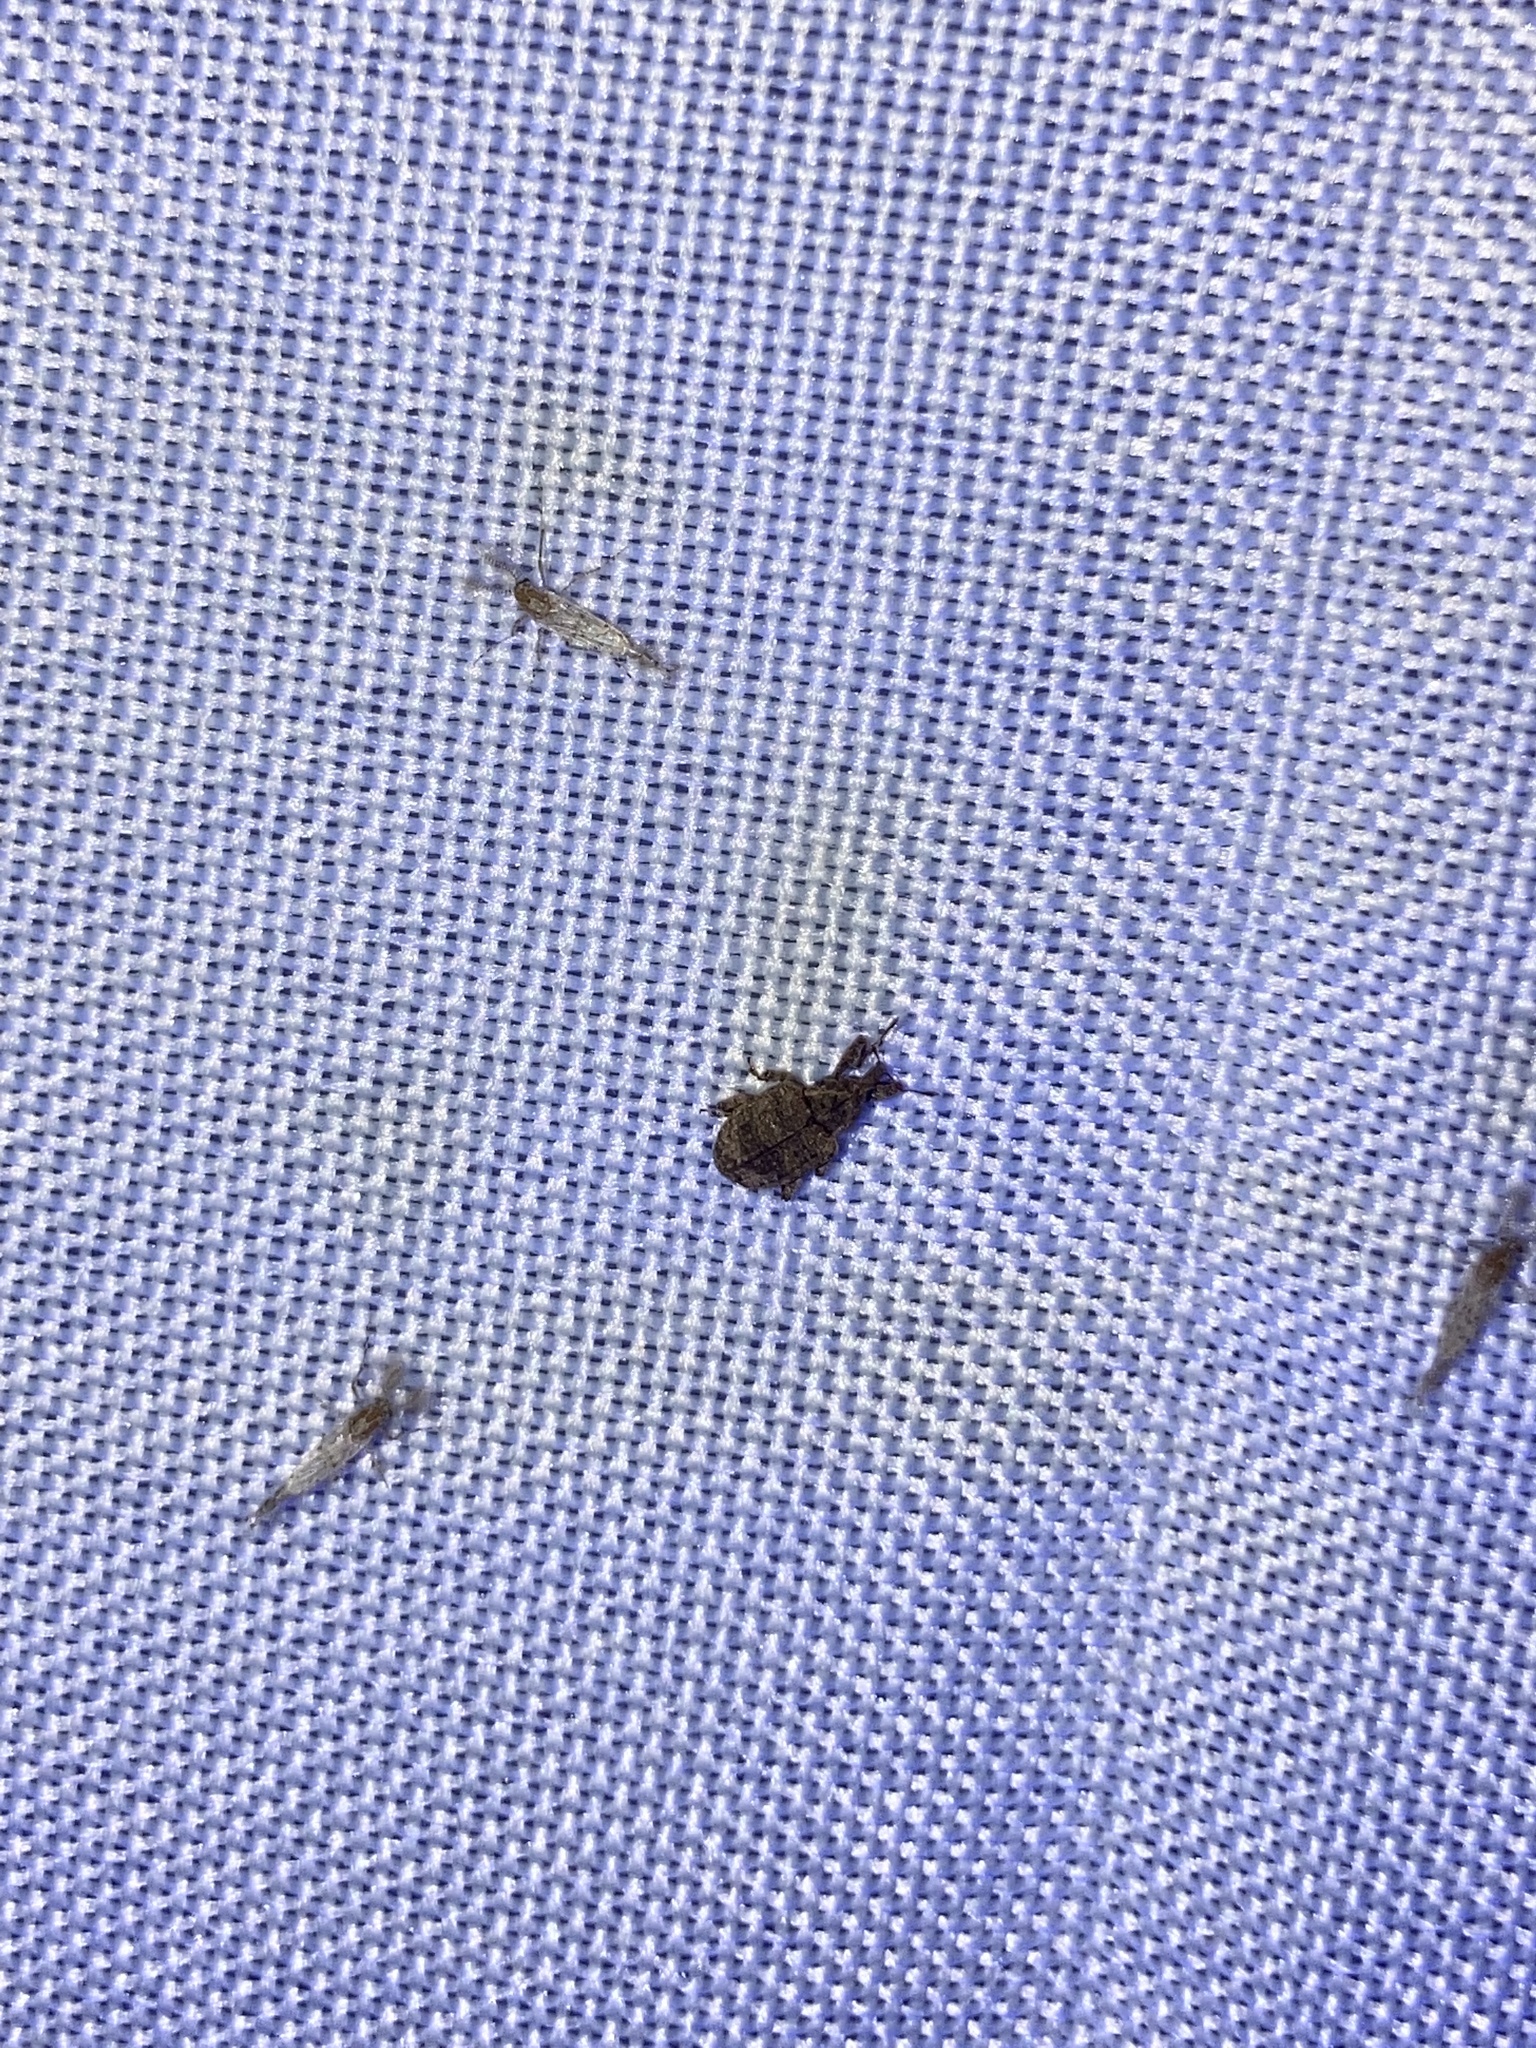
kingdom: Animalia
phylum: Arthropoda
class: Insecta
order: Coleoptera
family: Curculionidae
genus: Conotrachelus
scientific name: Conotrachelus seniculus
